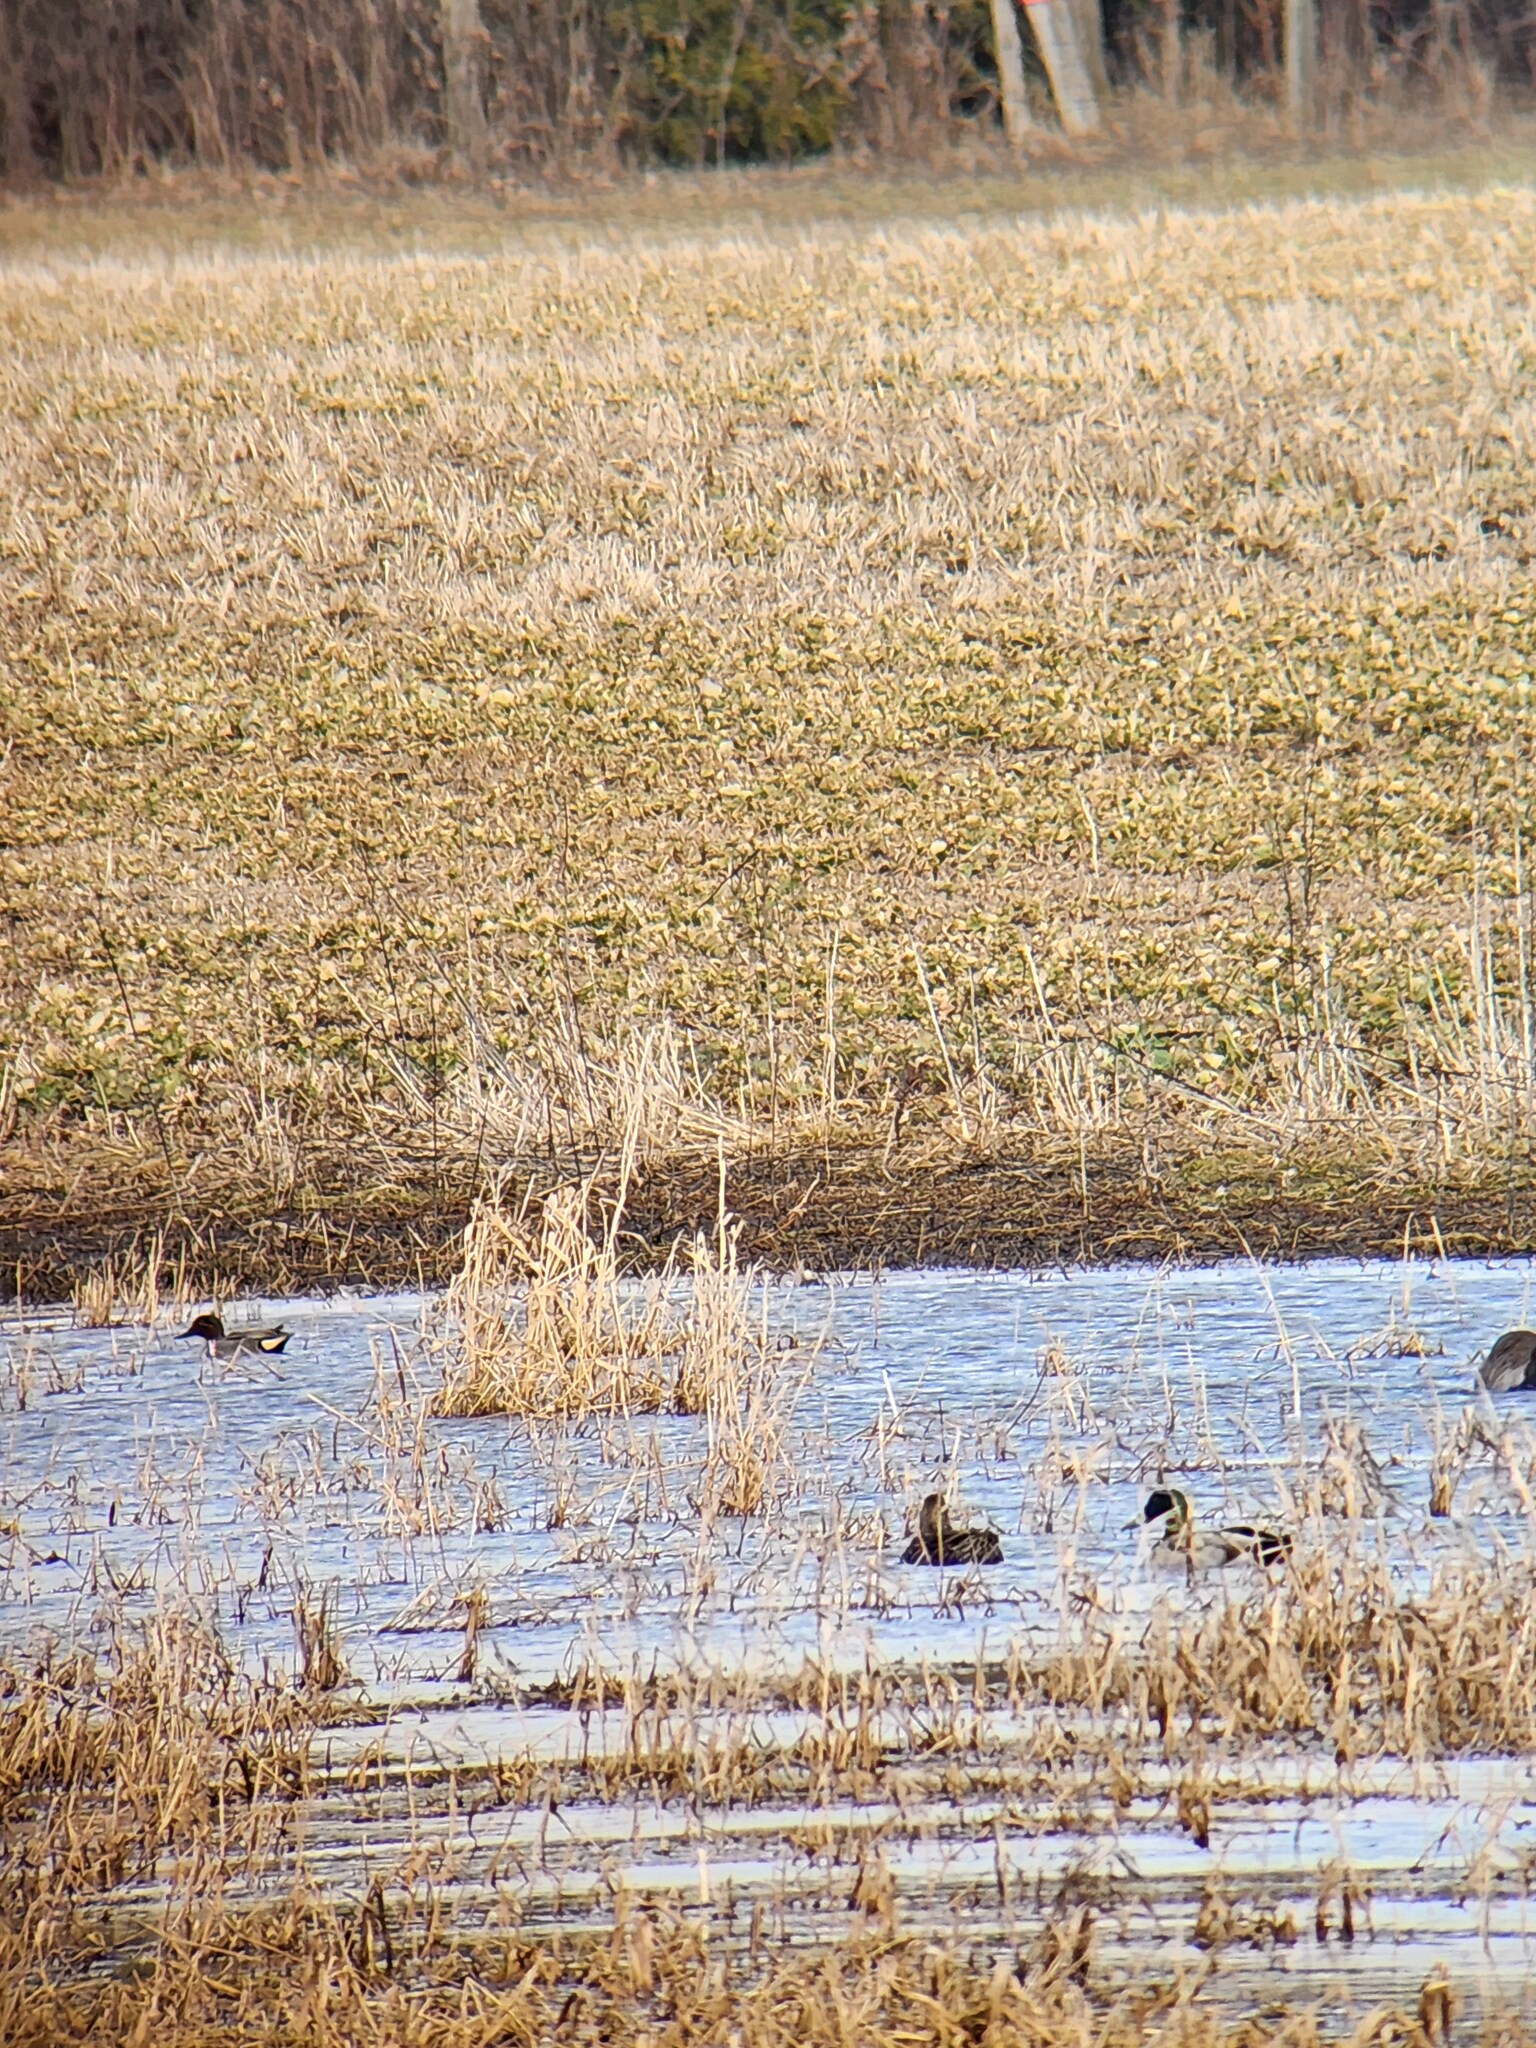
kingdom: Animalia
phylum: Chordata
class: Aves
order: Anseriformes
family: Anatidae
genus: Anas
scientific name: Anas crecca
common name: Eurasian teal
